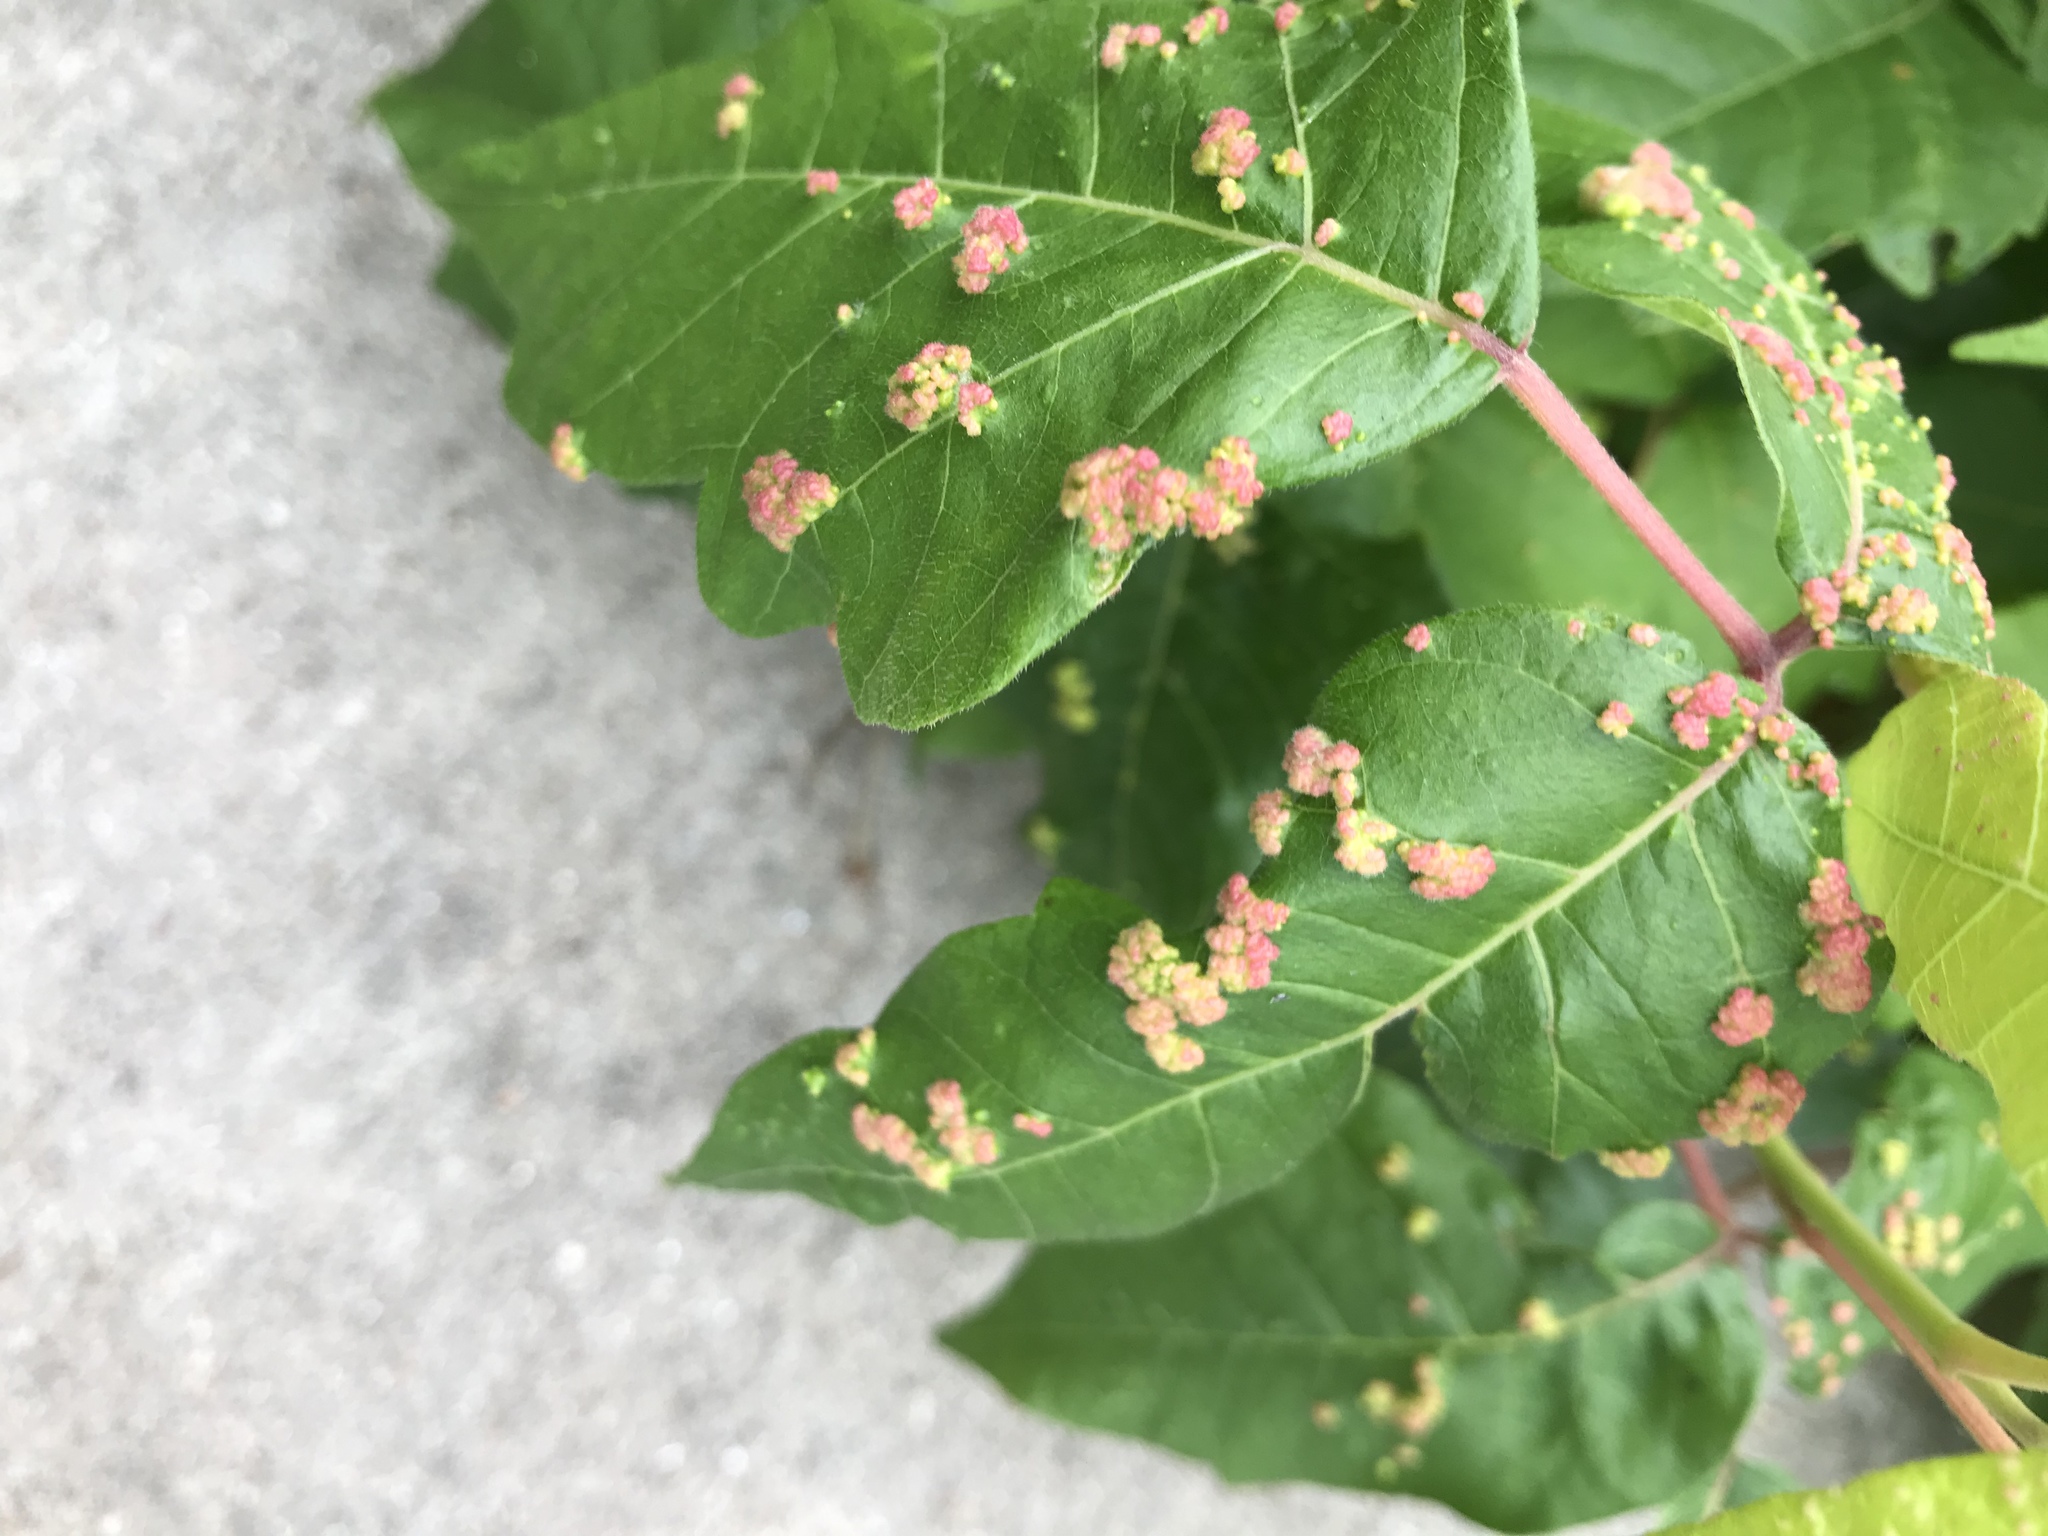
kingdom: Animalia
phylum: Arthropoda
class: Arachnida
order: Trombidiformes
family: Eriophyidae
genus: Aculops
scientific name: Aculops
